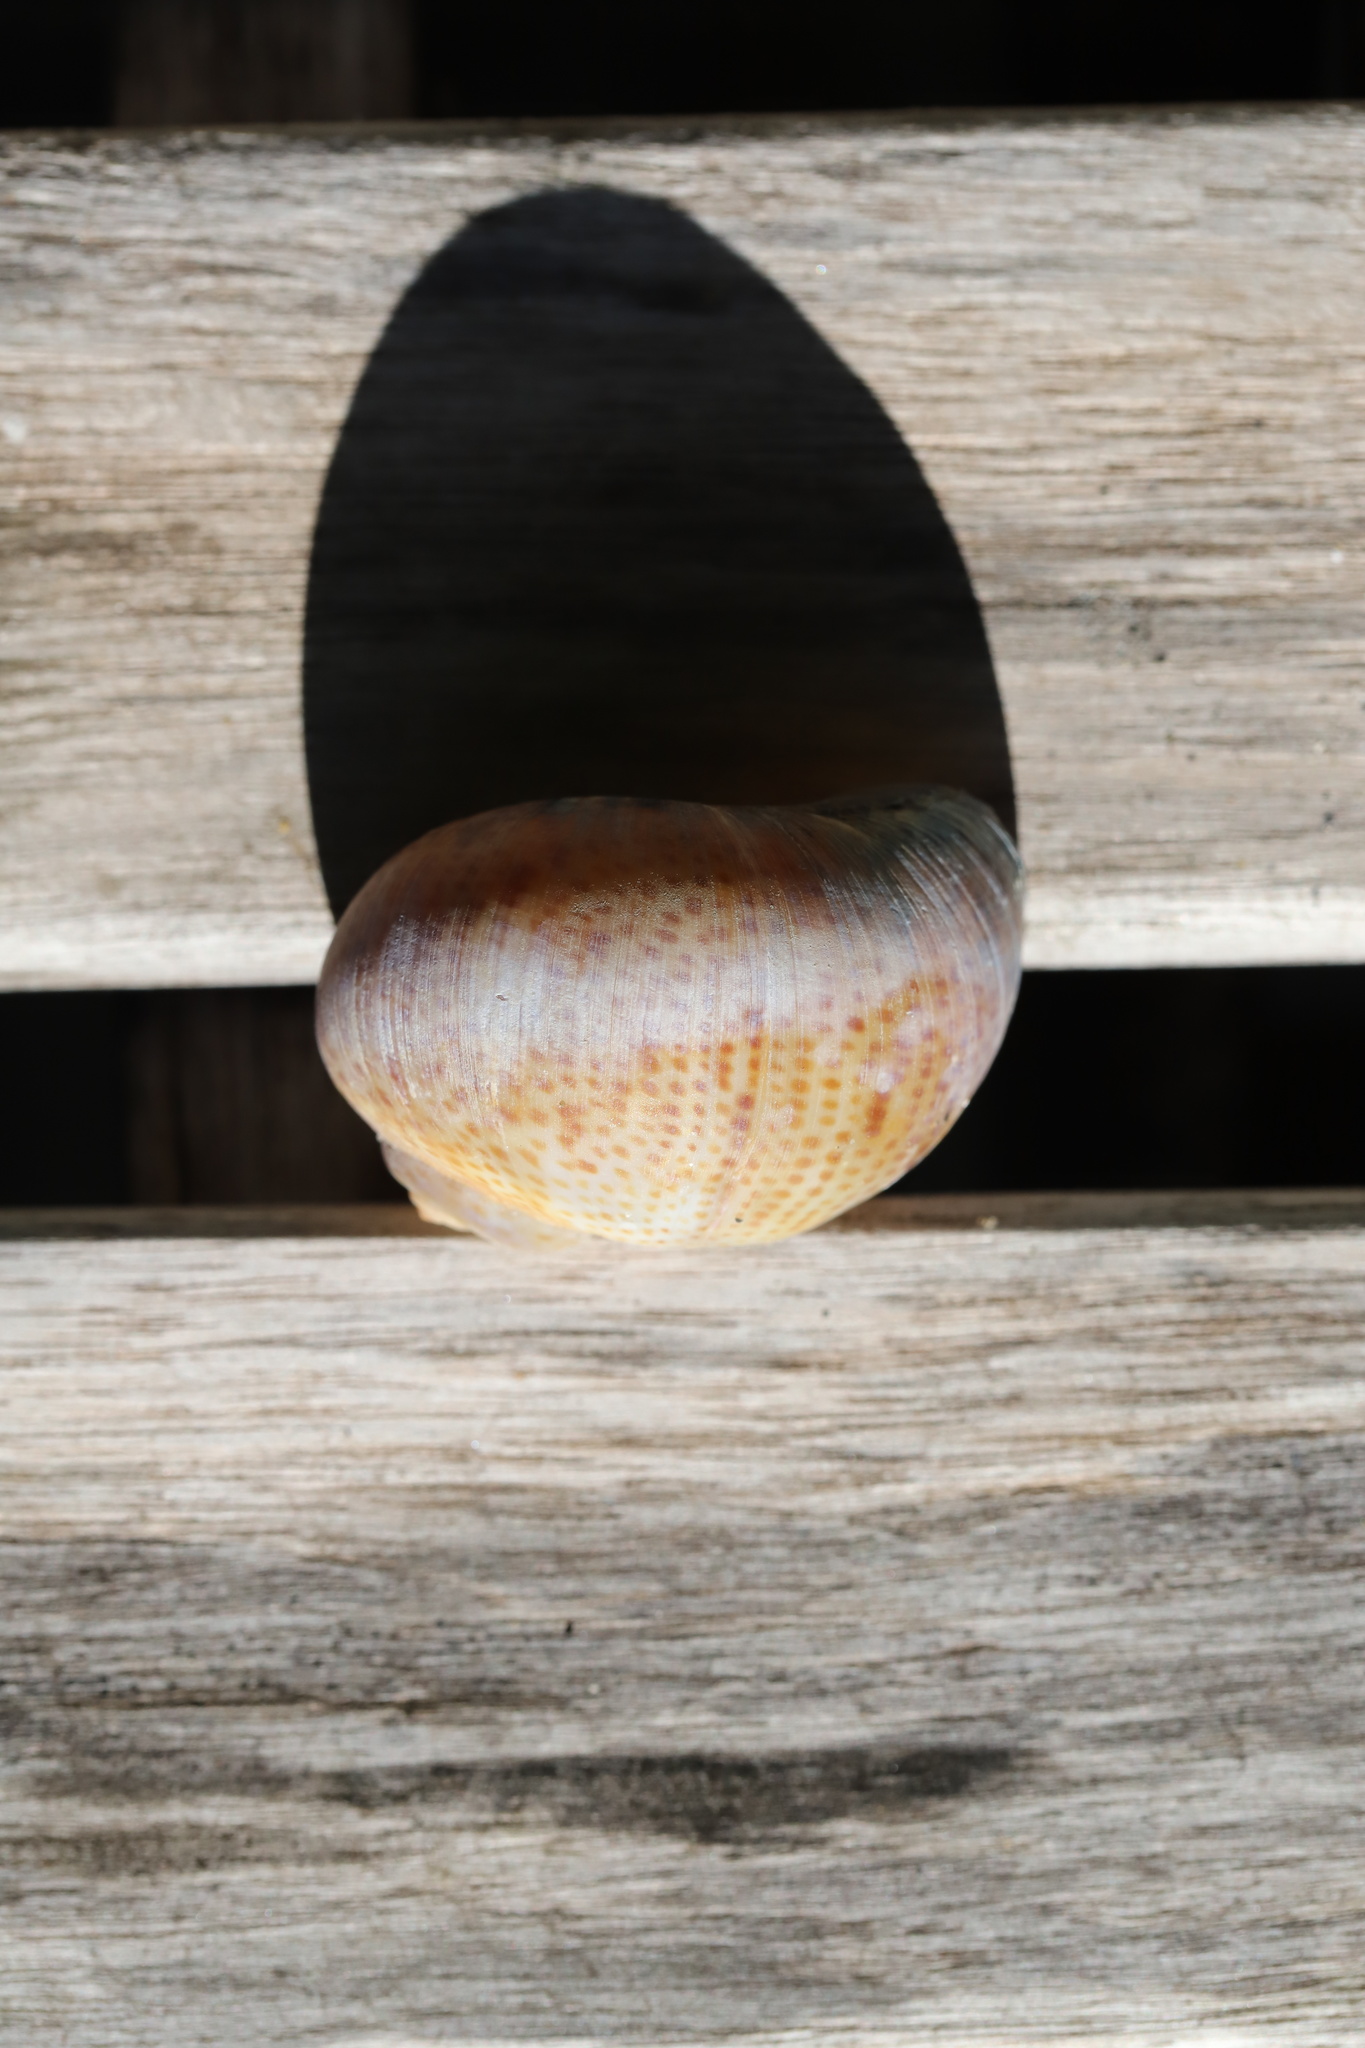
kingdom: Animalia
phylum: Mollusca
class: Gastropoda
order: Littorinimorpha
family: Naticidae
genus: Naticarius
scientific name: Naticarius stercusmuscarum
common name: Fly-speck moonsnail
